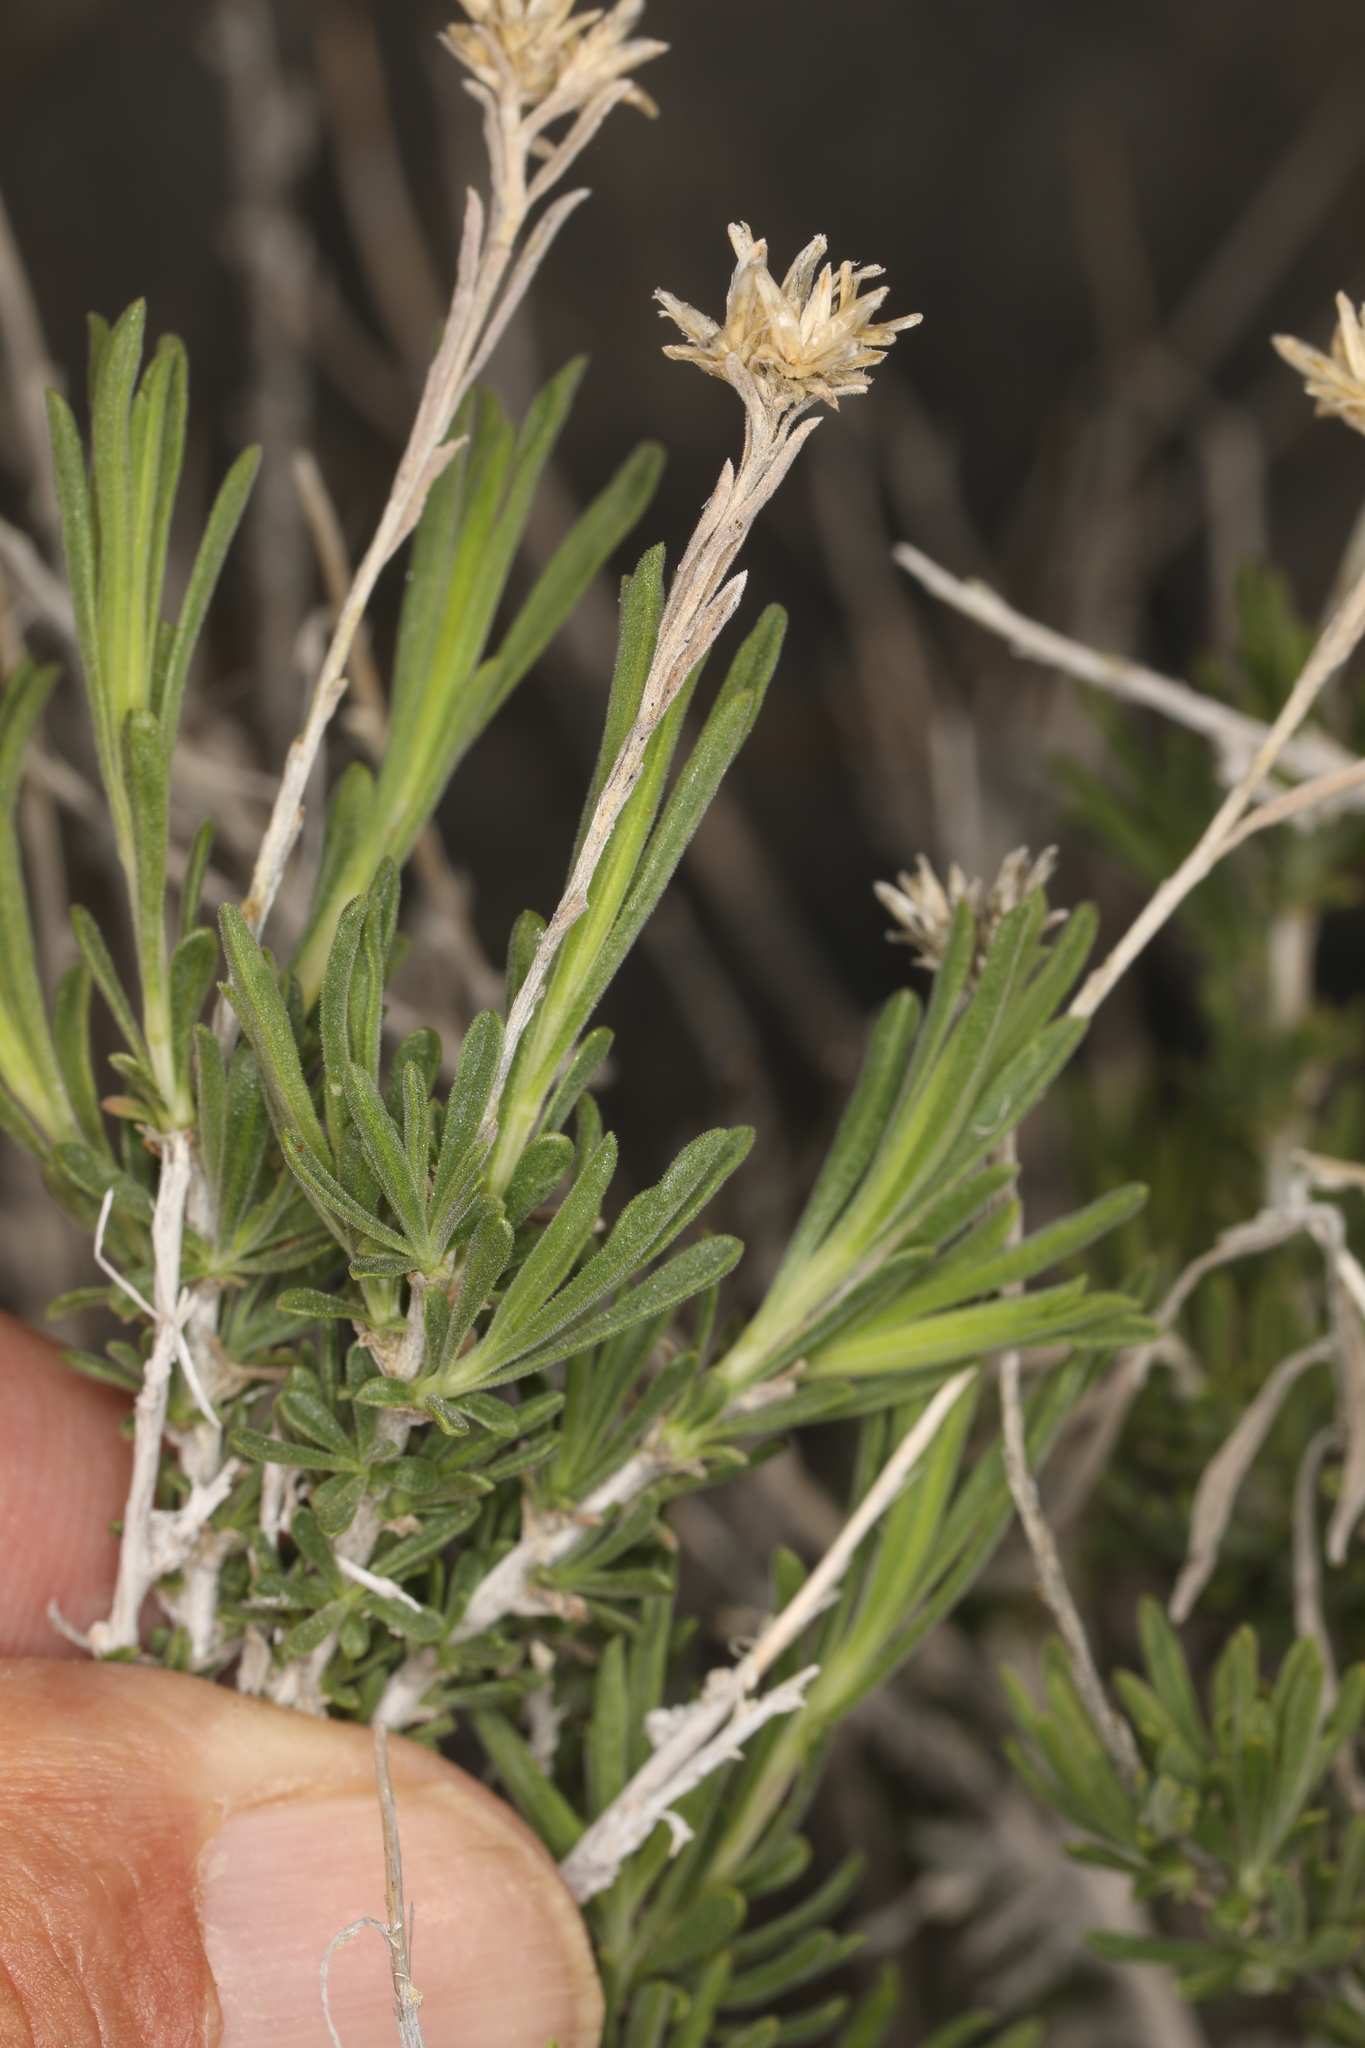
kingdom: Plantae
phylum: Tracheophyta
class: Magnoliopsida
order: Asterales
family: Asteraceae
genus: Chrysothamnus
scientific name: Chrysothamnus viscidiflorus
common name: Yellow rabbitbrush
